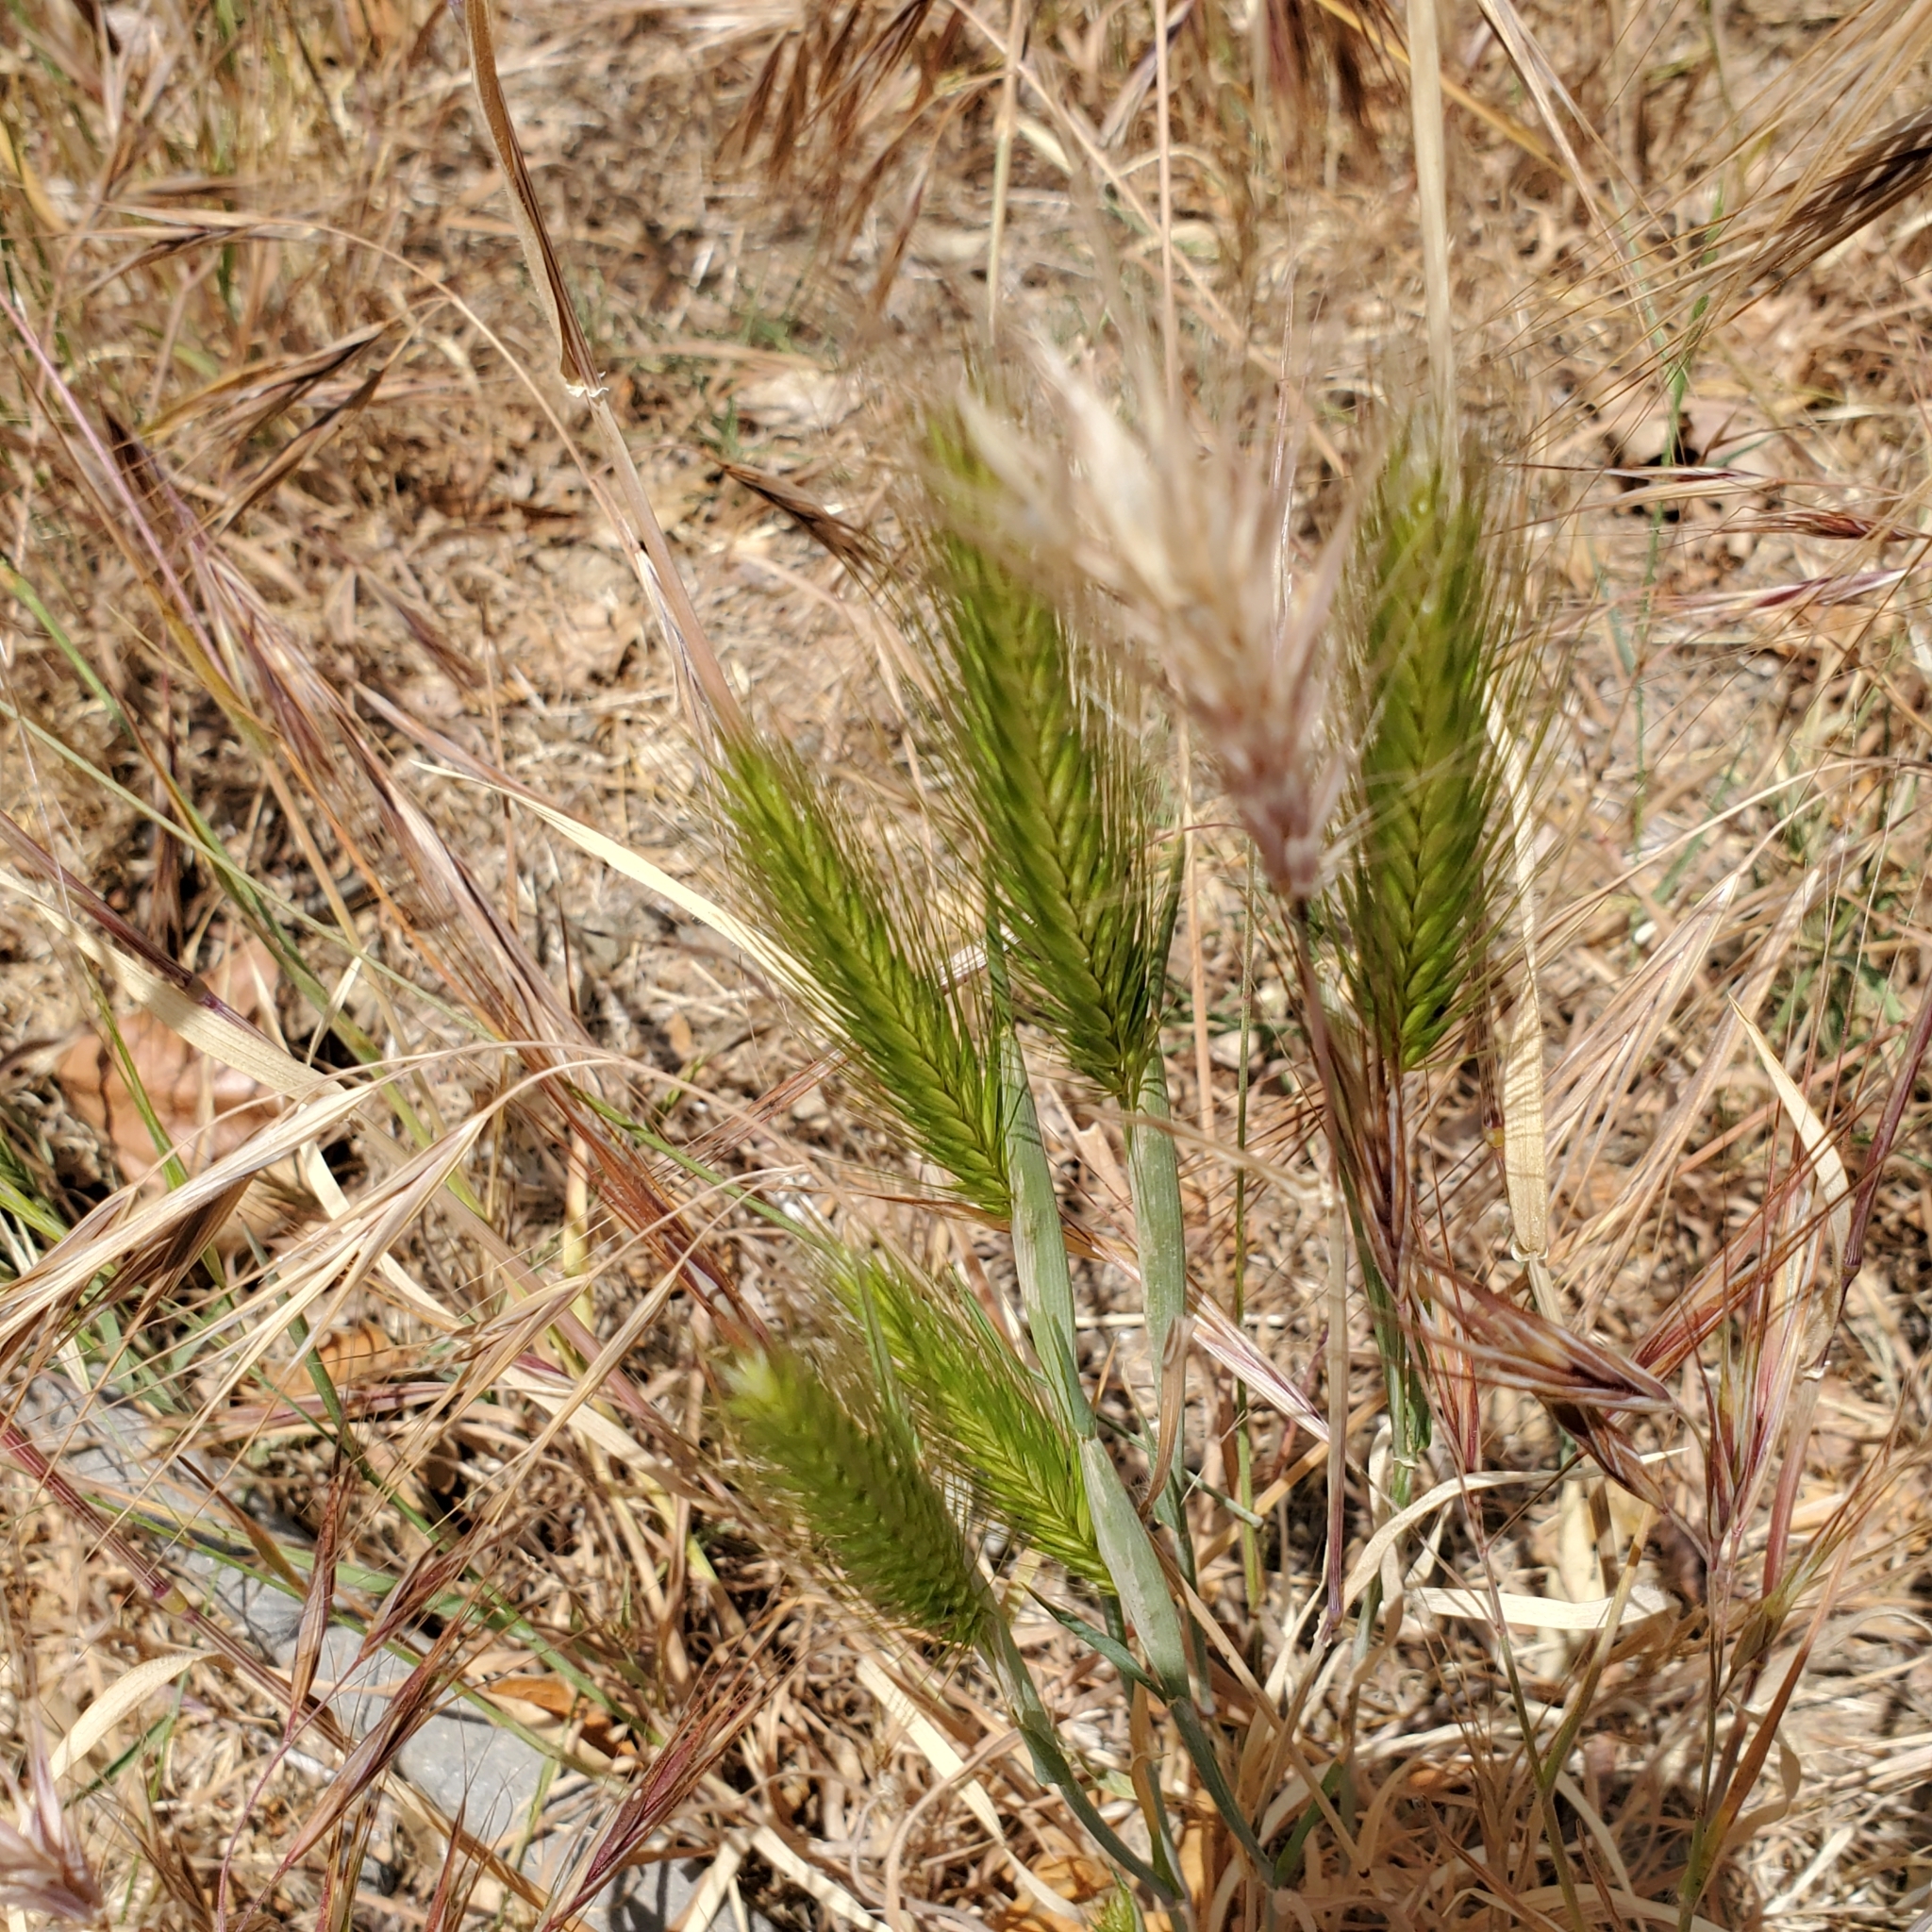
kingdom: Plantae
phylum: Tracheophyta
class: Liliopsida
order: Poales
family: Poaceae
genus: Hordeum
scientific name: Hordeum murinum
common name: Wall barley
